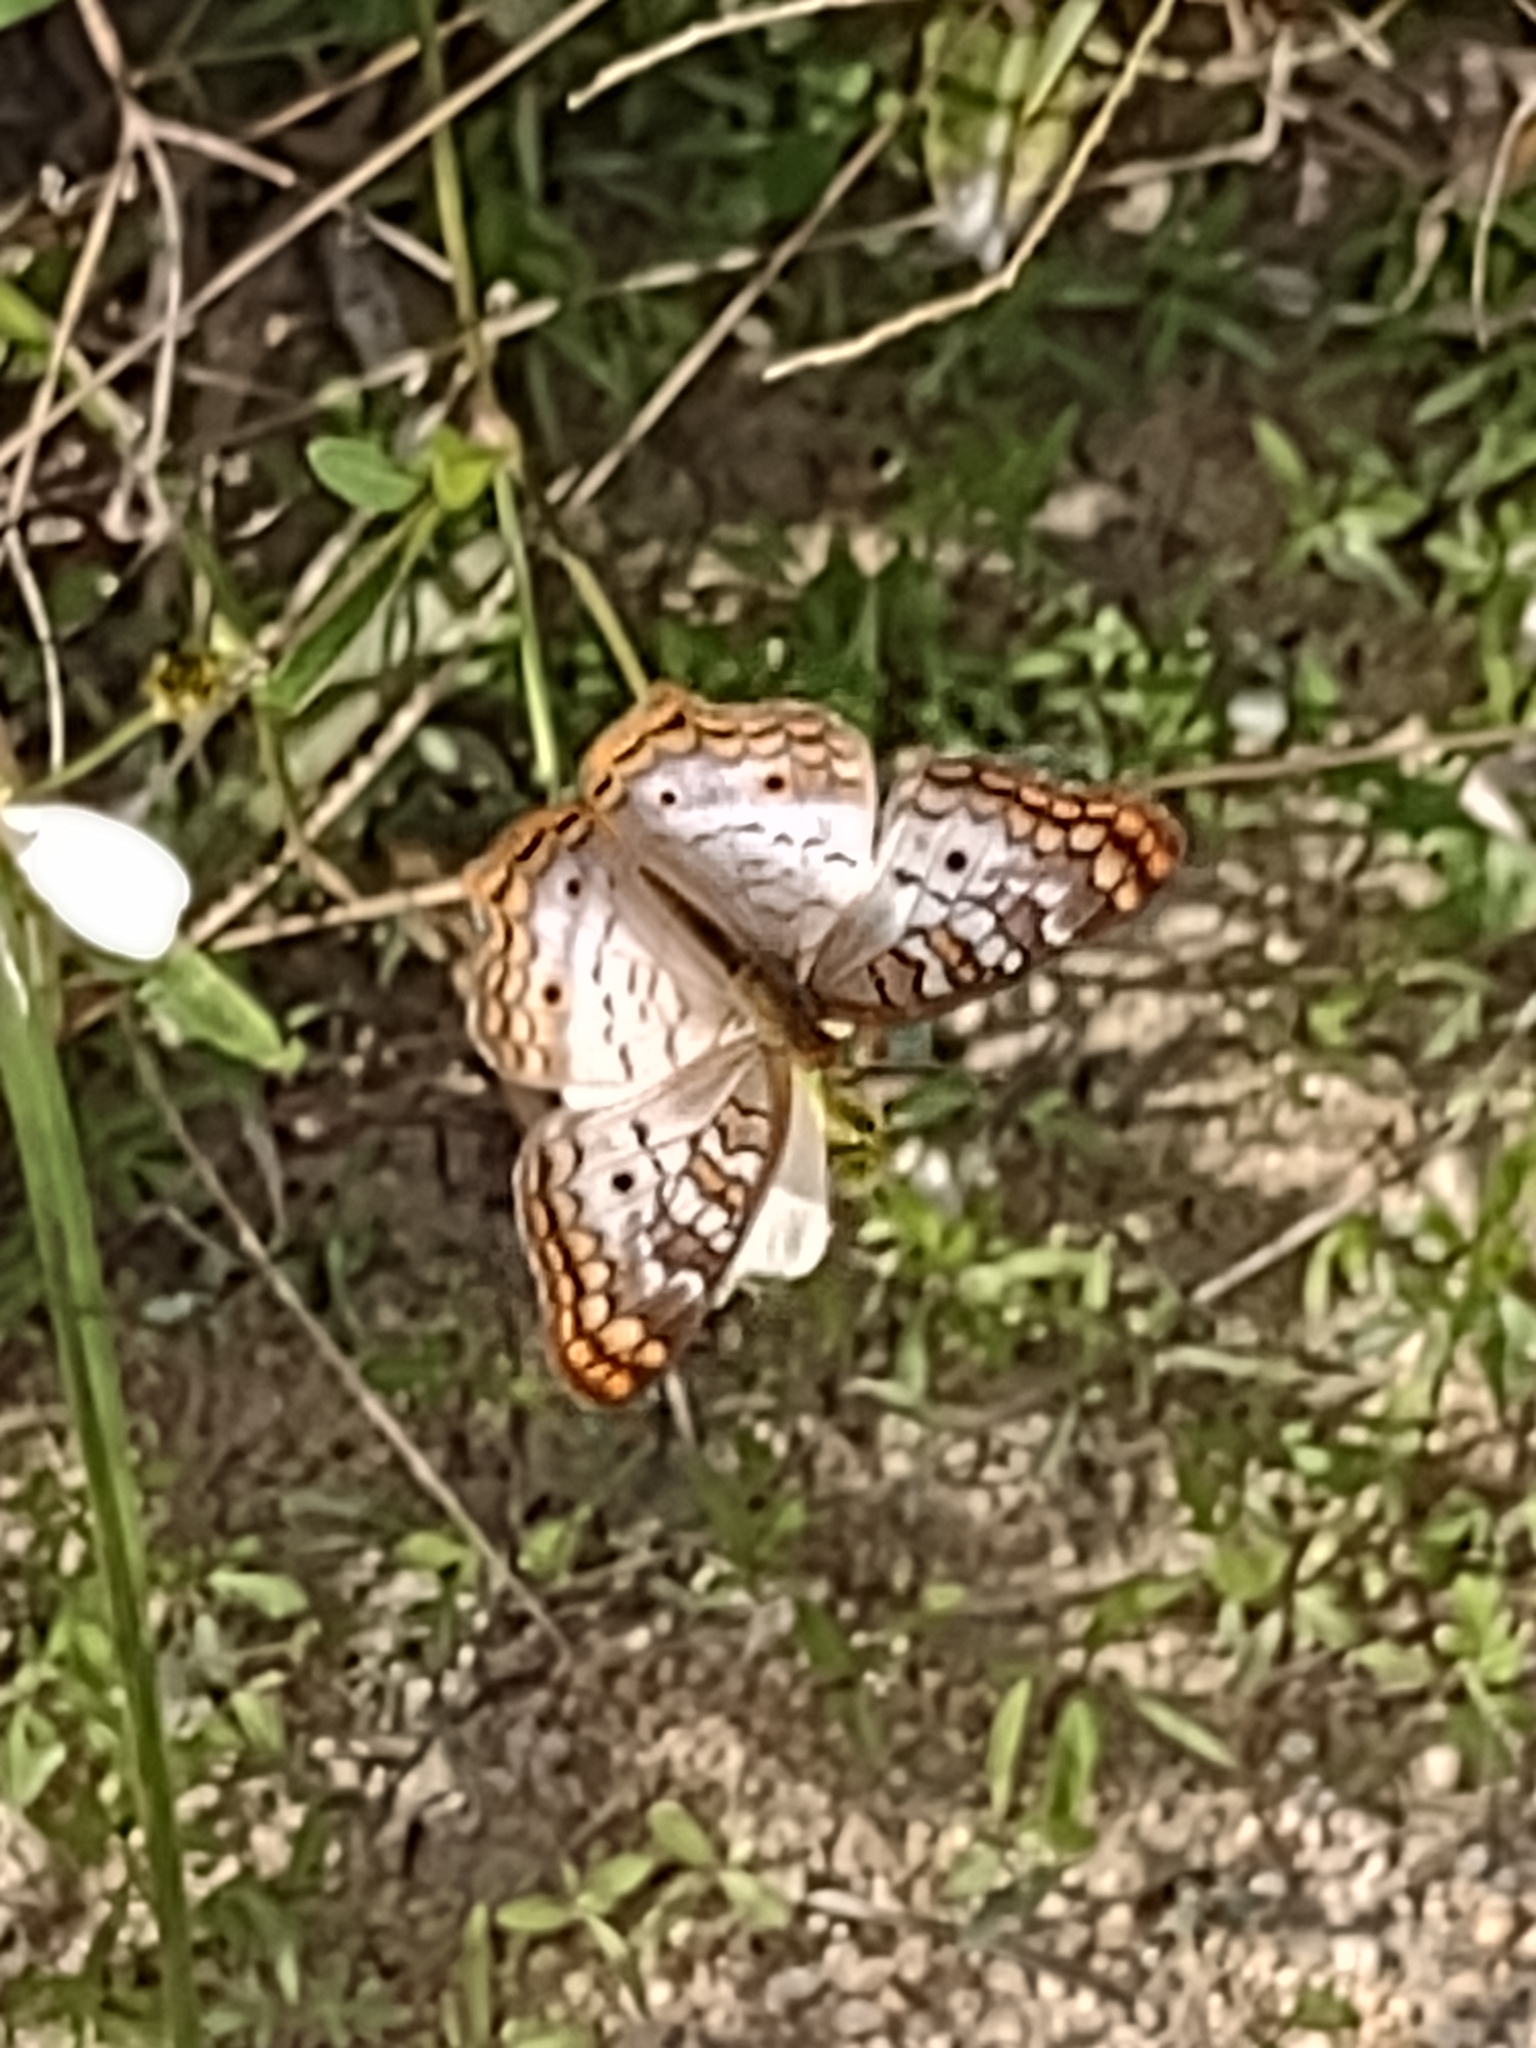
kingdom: Animalia
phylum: Arthropoda
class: Insecta
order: Lepidoptera
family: Nymphalidae
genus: Anartia
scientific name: Anartia jatrophae
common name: White peacock
